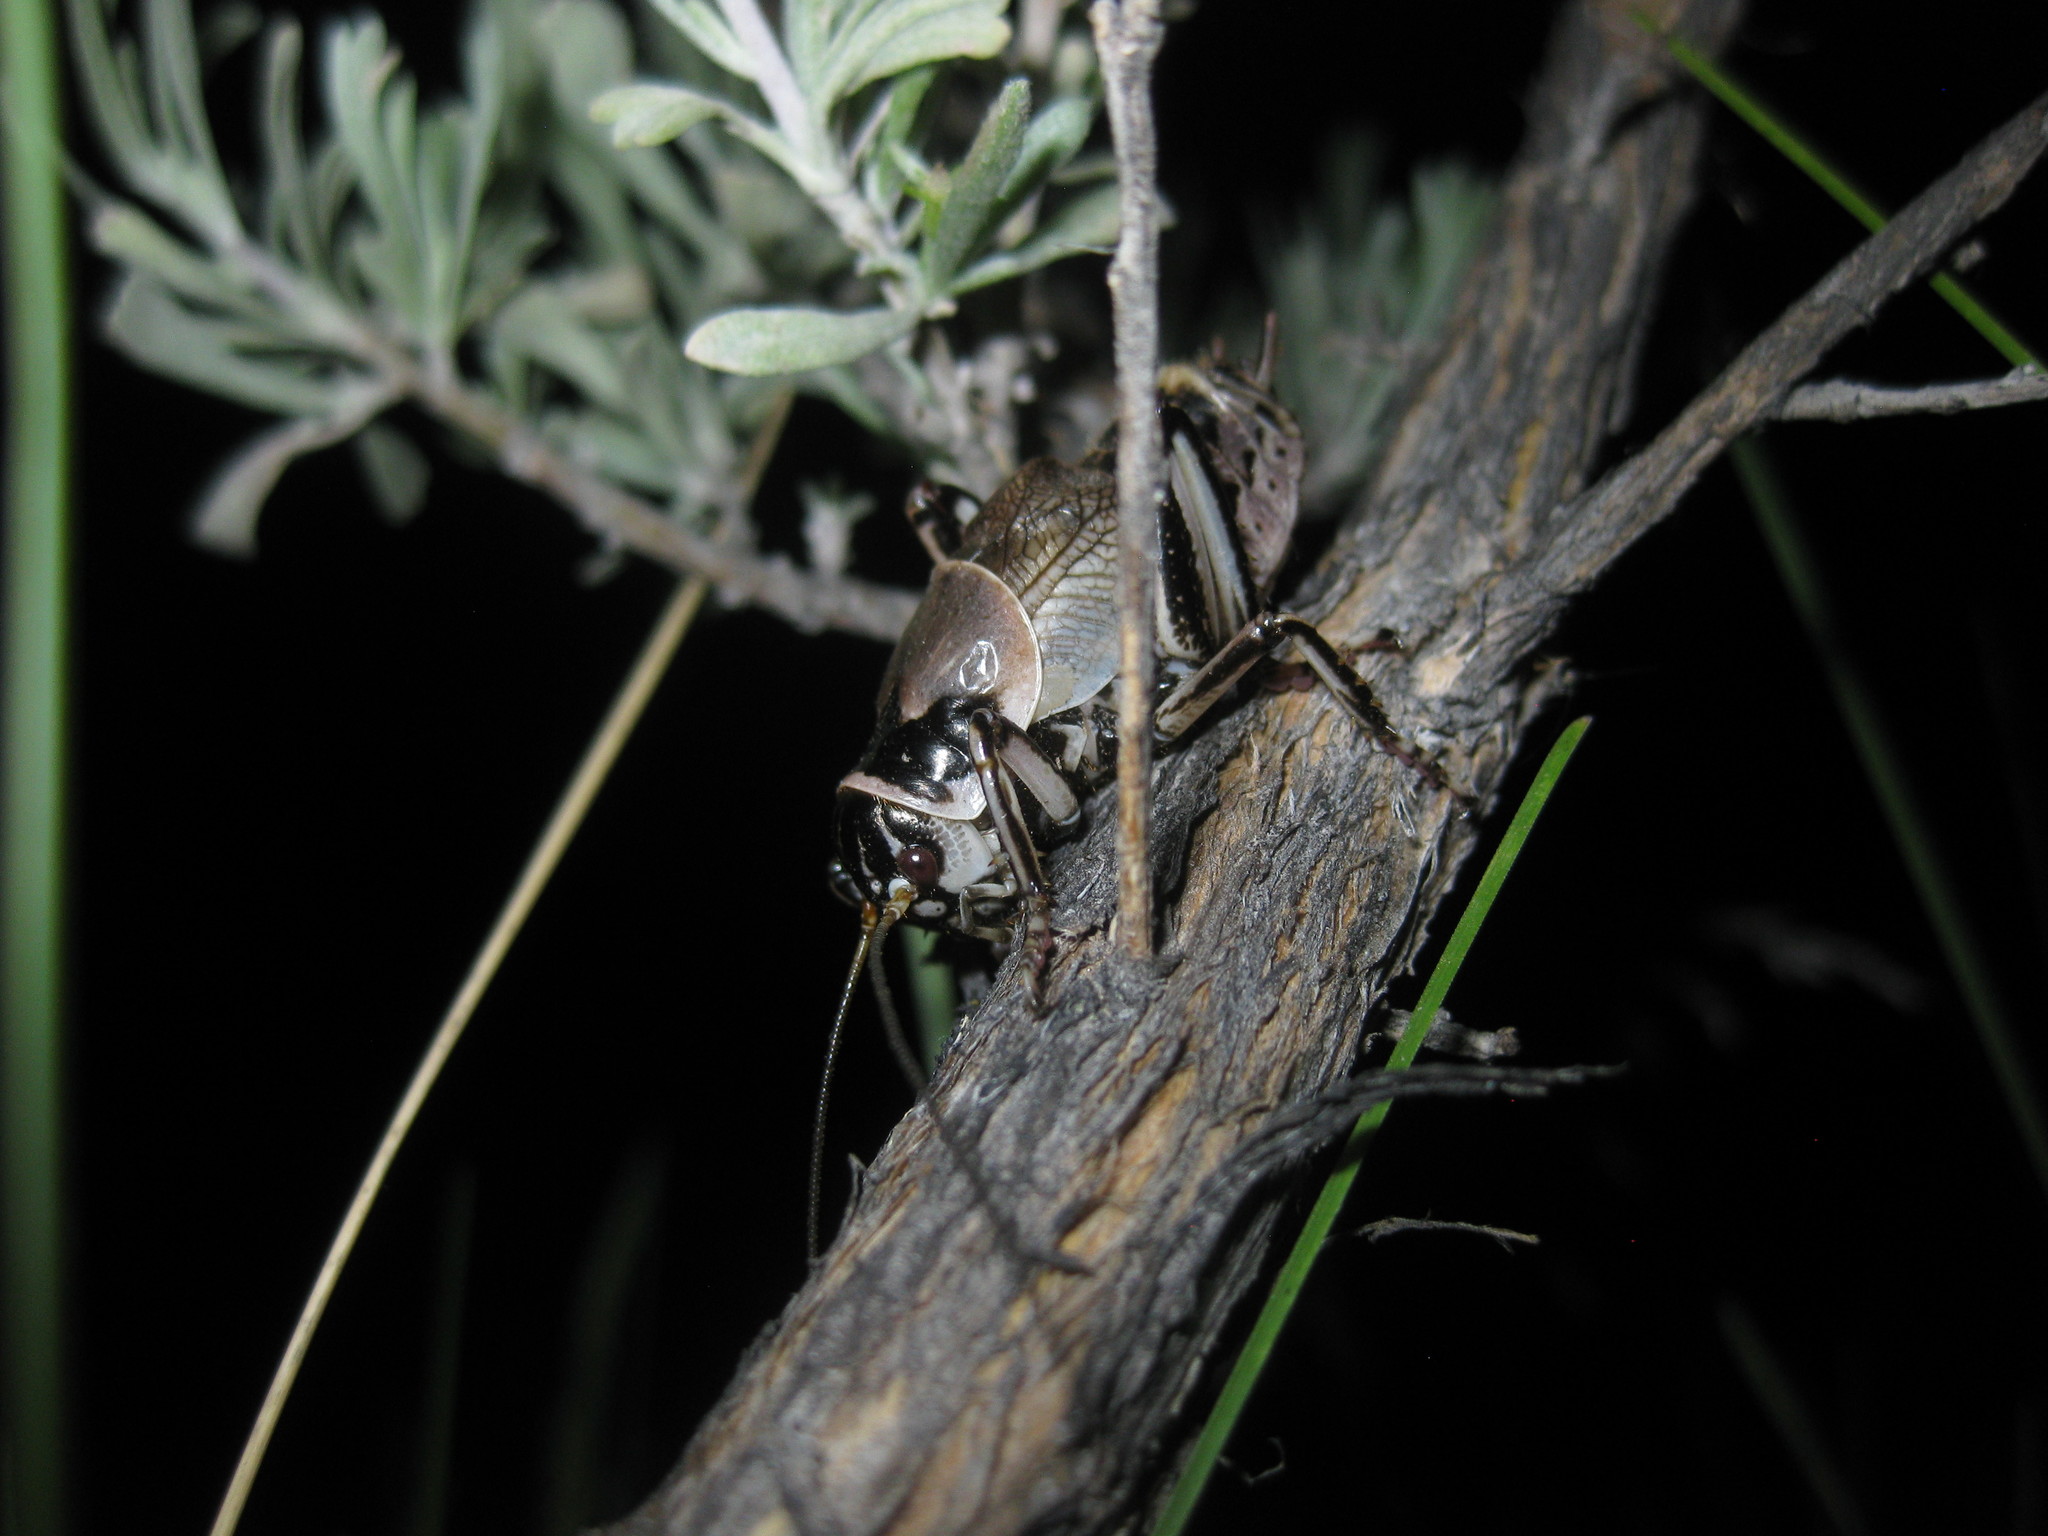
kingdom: Animalia
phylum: Arthropoda
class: Insecta
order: Orthoptera
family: Prophalangopsidae
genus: Cyphoderris
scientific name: Cyphoderris buckelli
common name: Buckell’s grig
